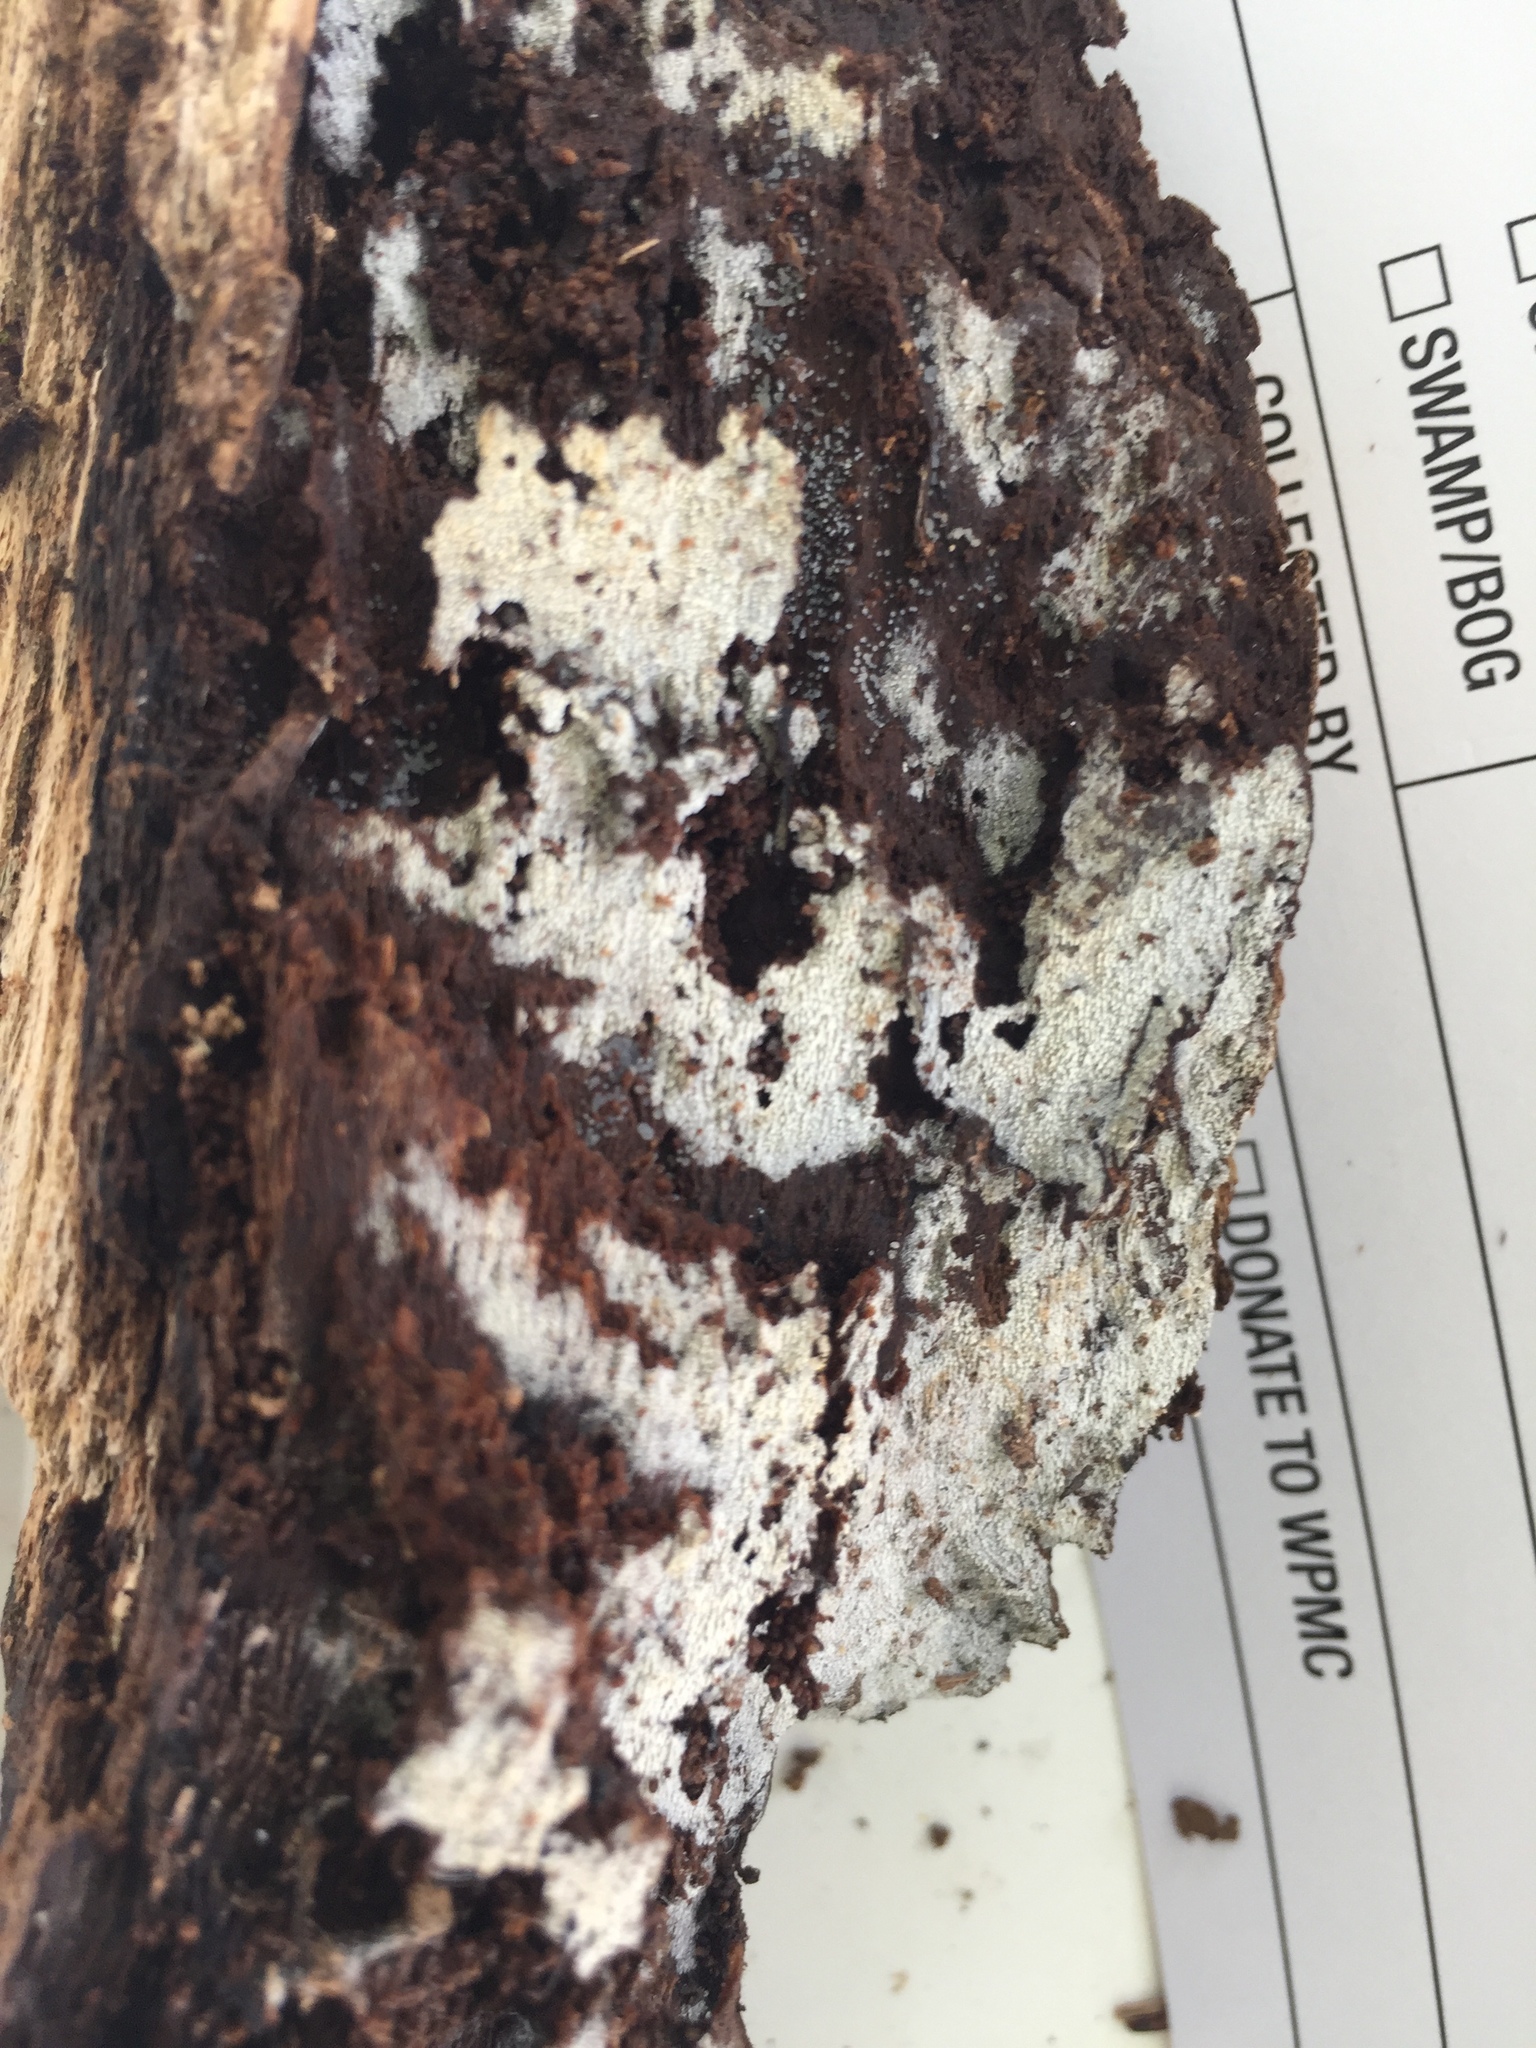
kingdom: Protozoa
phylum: Mycetozoa
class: Protosteliomycetes
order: Ceratiomyxales
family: Ceratiomyxaceae
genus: Ceratiomyxa
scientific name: Ceratiomyxa fruticulosa
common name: Honeycomb coral slime mold
